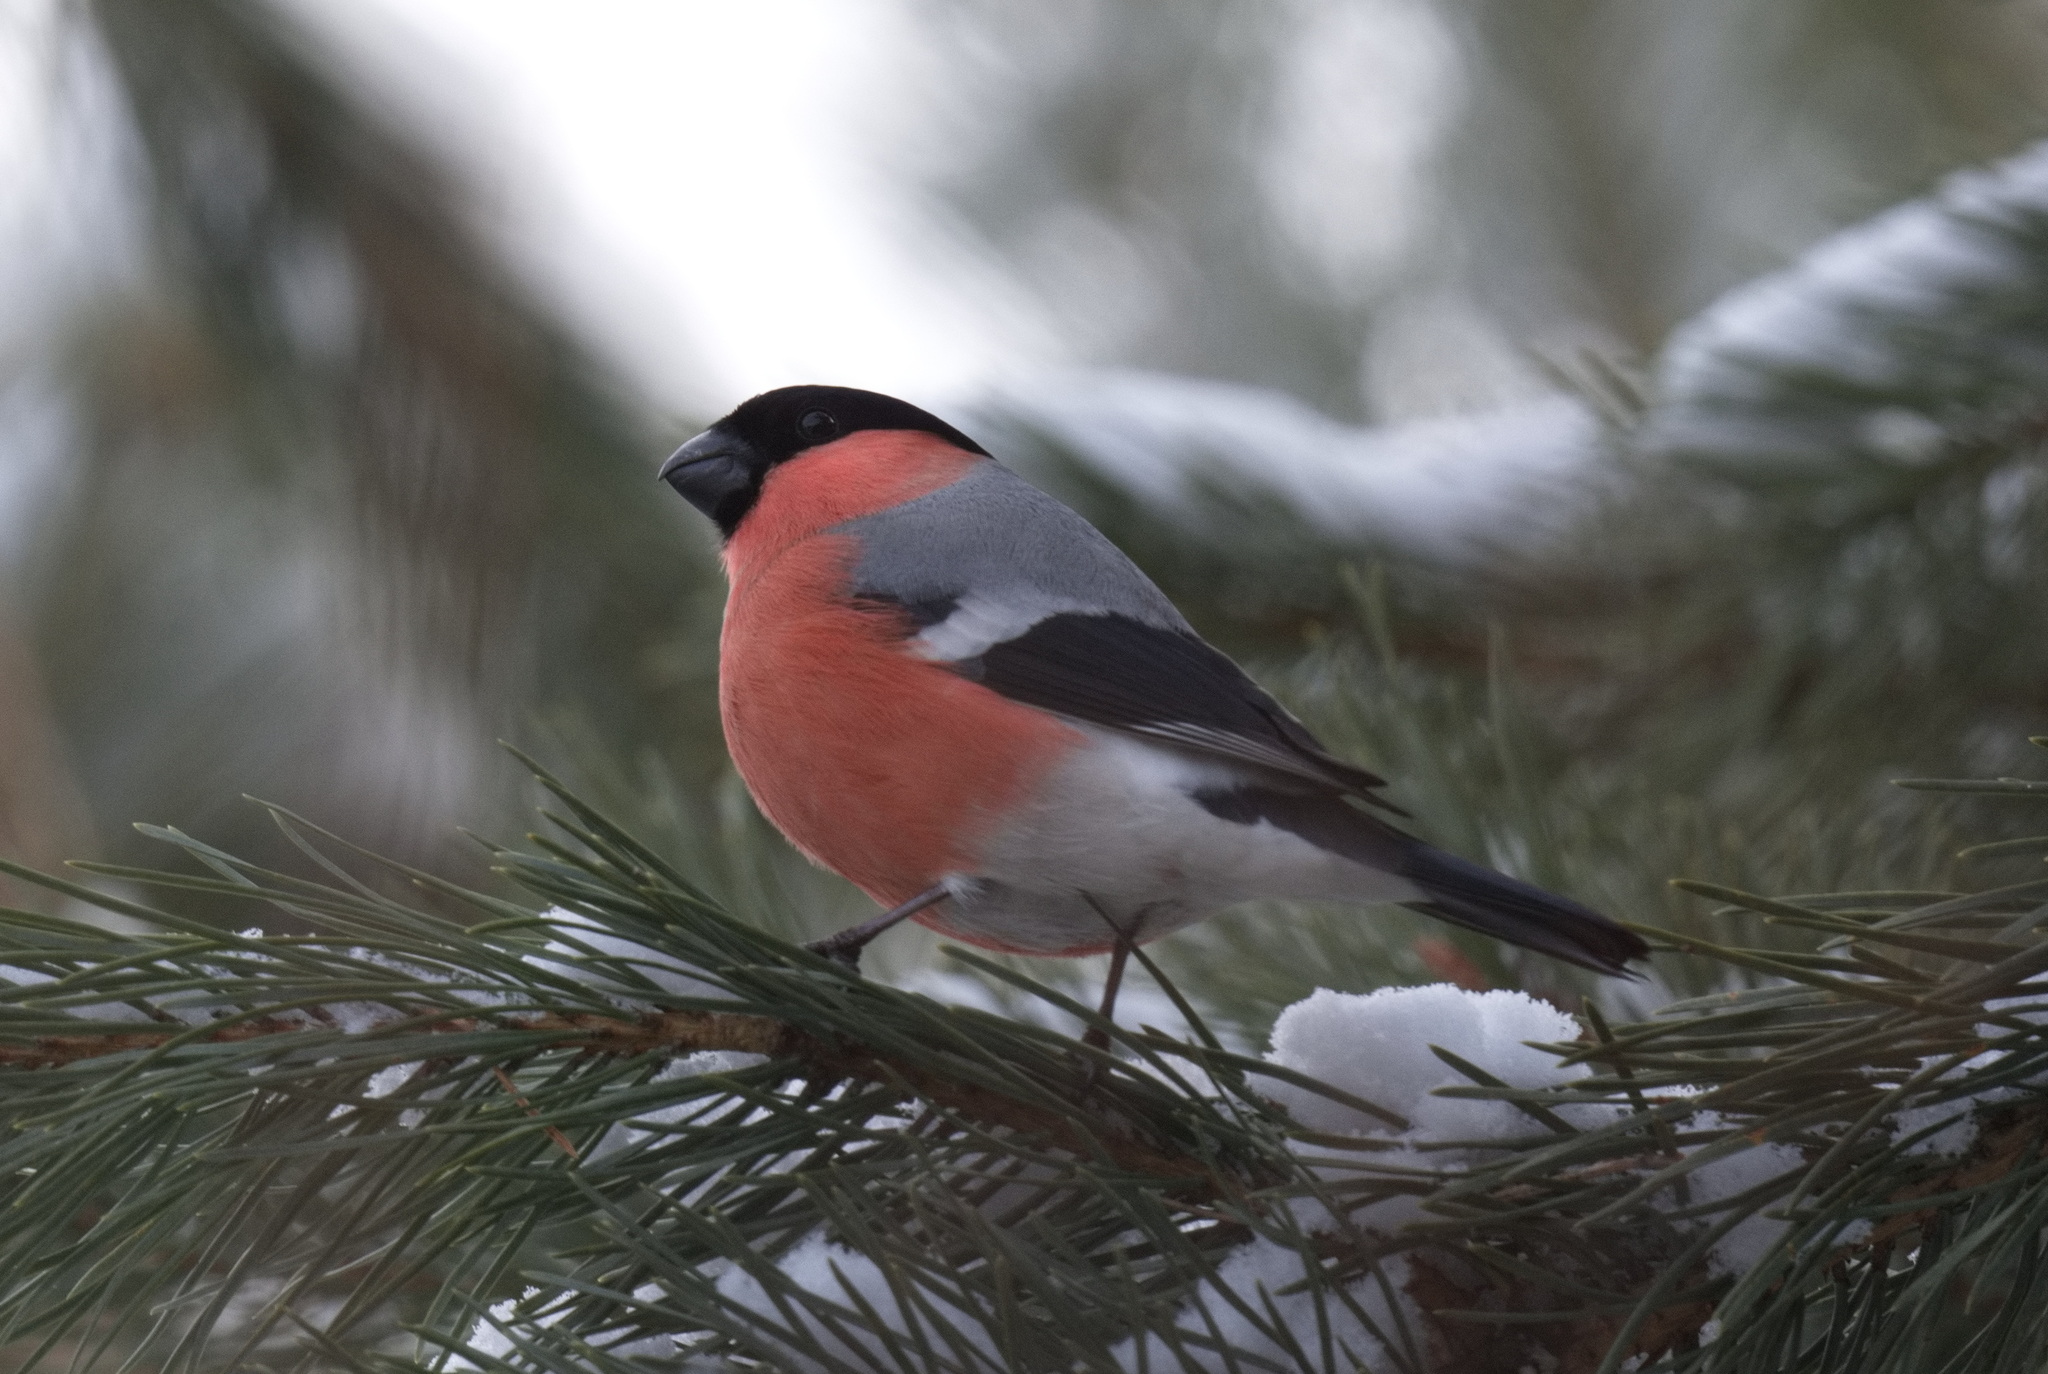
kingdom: Animalia
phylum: Chordata
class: Aves
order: Passeriformes
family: Fringillidae
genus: Pyrrhula
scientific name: Pyrrhula pyrrhula
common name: Eurasian bullfinch
